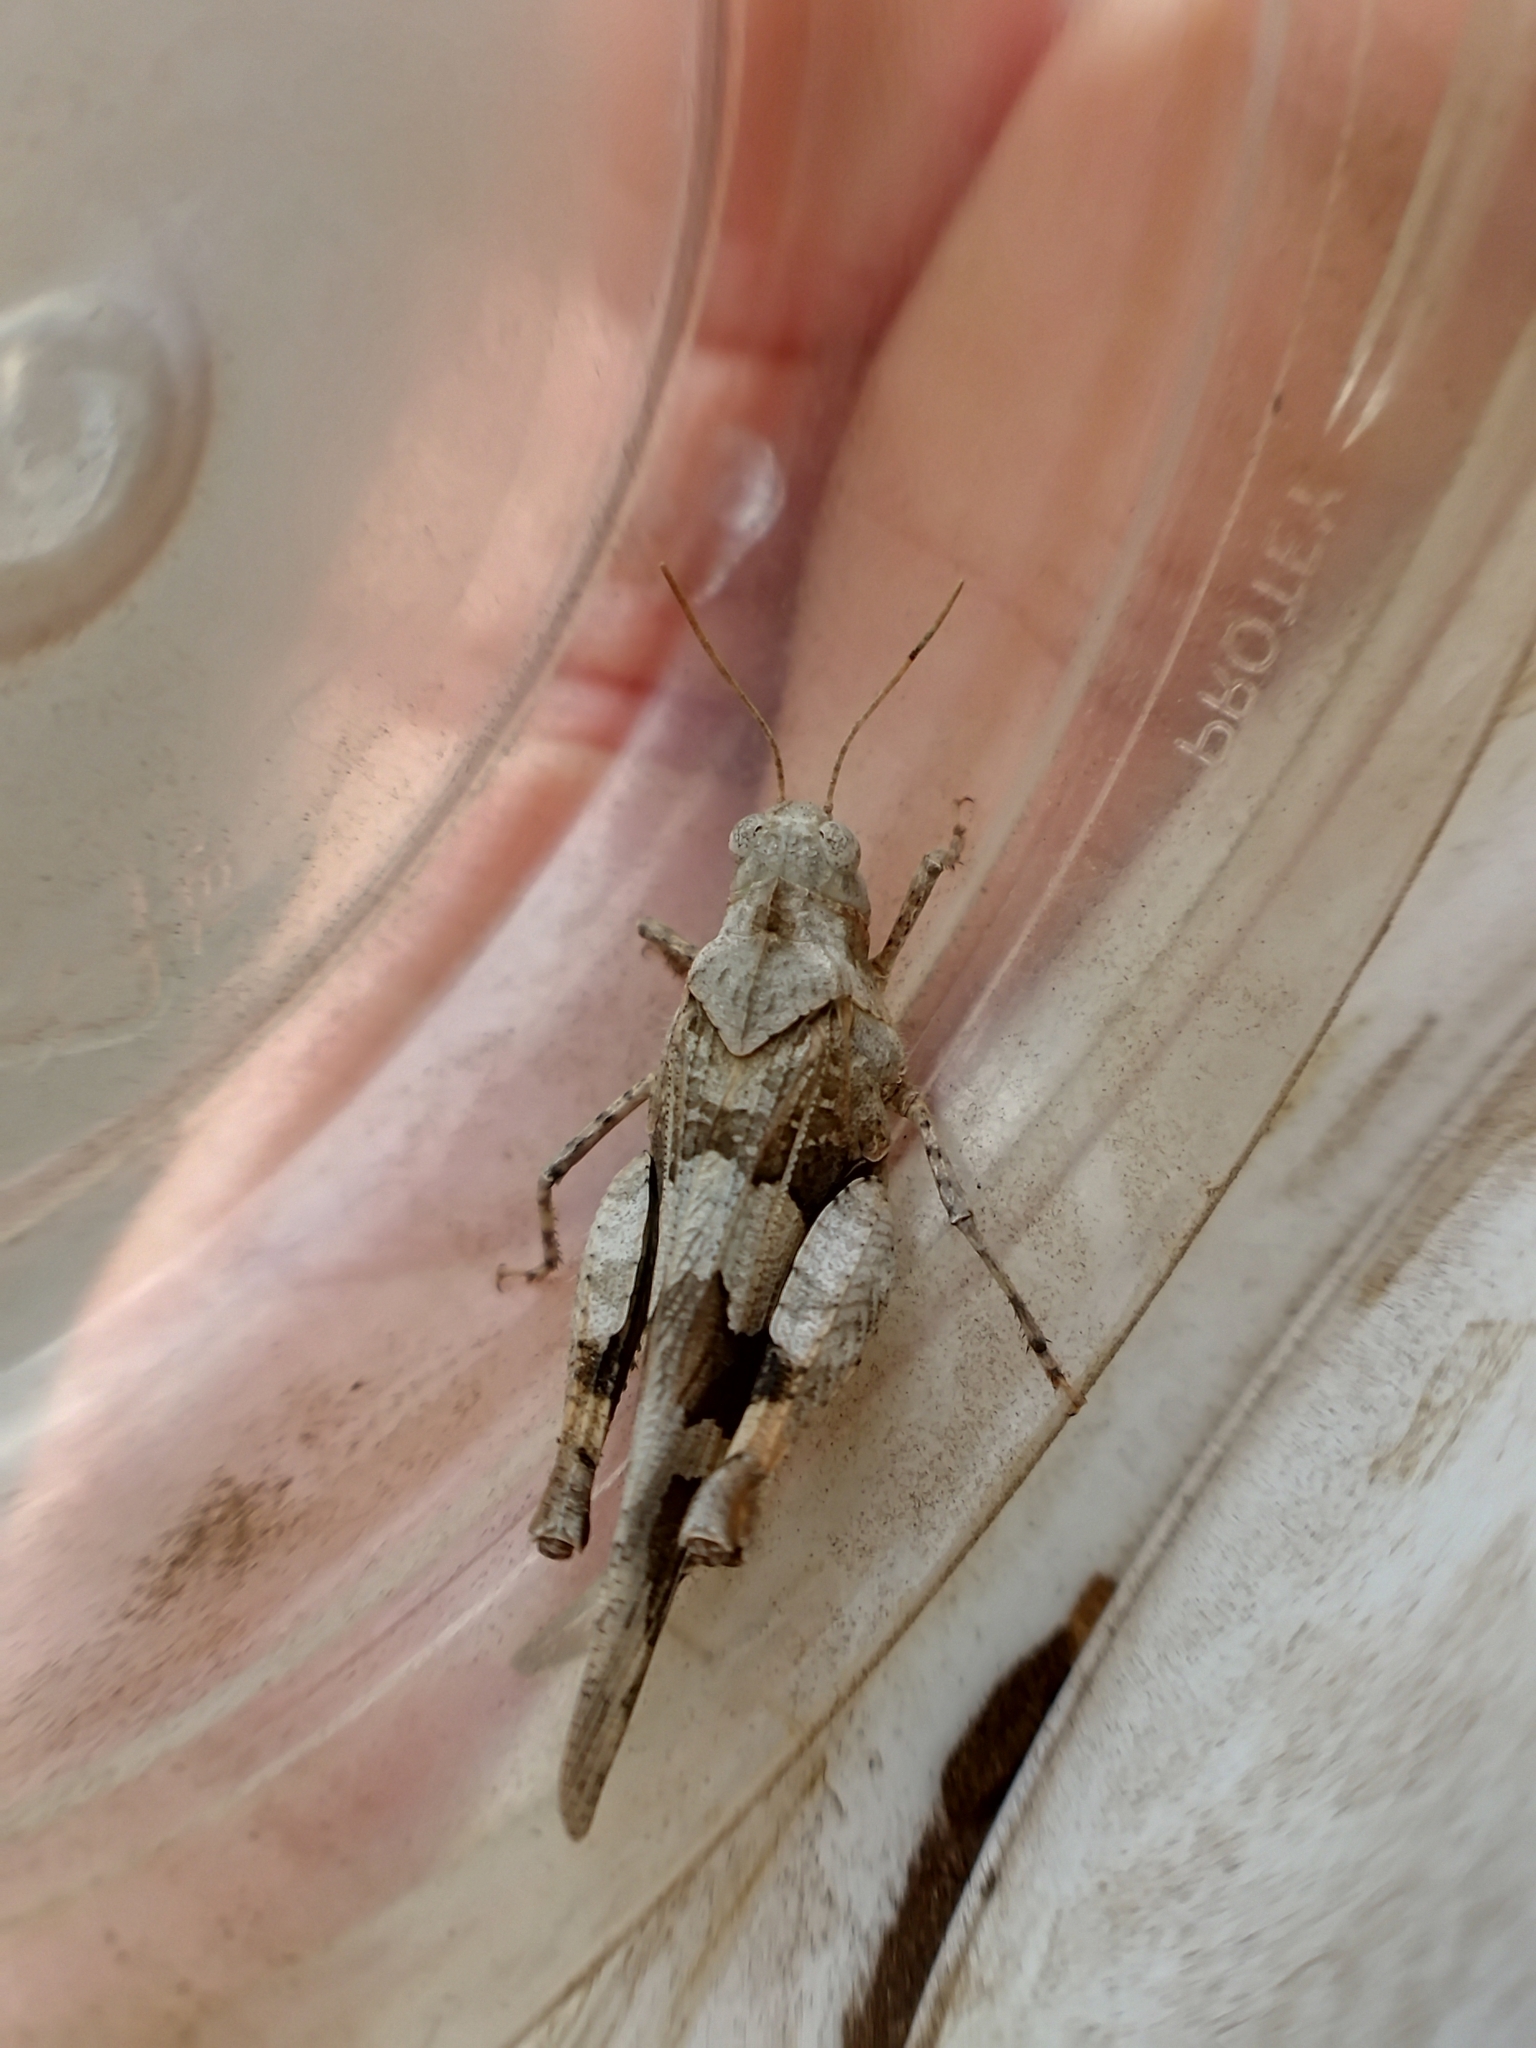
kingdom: Animalia
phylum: Arthropoda
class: Insecta
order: Orthoptera
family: Acrididae
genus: Oedipoda
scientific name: Oedipoda miniata
